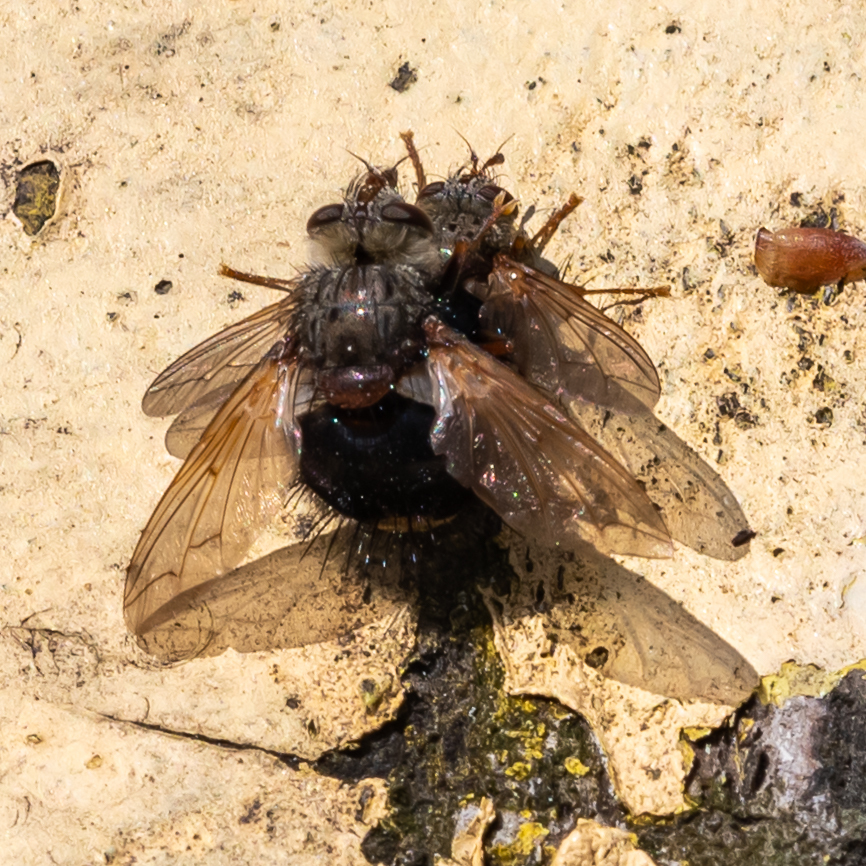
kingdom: Animalia
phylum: Arthropoda
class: Insecta
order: Diptera
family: Tachinidae
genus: Epalpus
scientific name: Epalpus signifer
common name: Early tachinid fly
